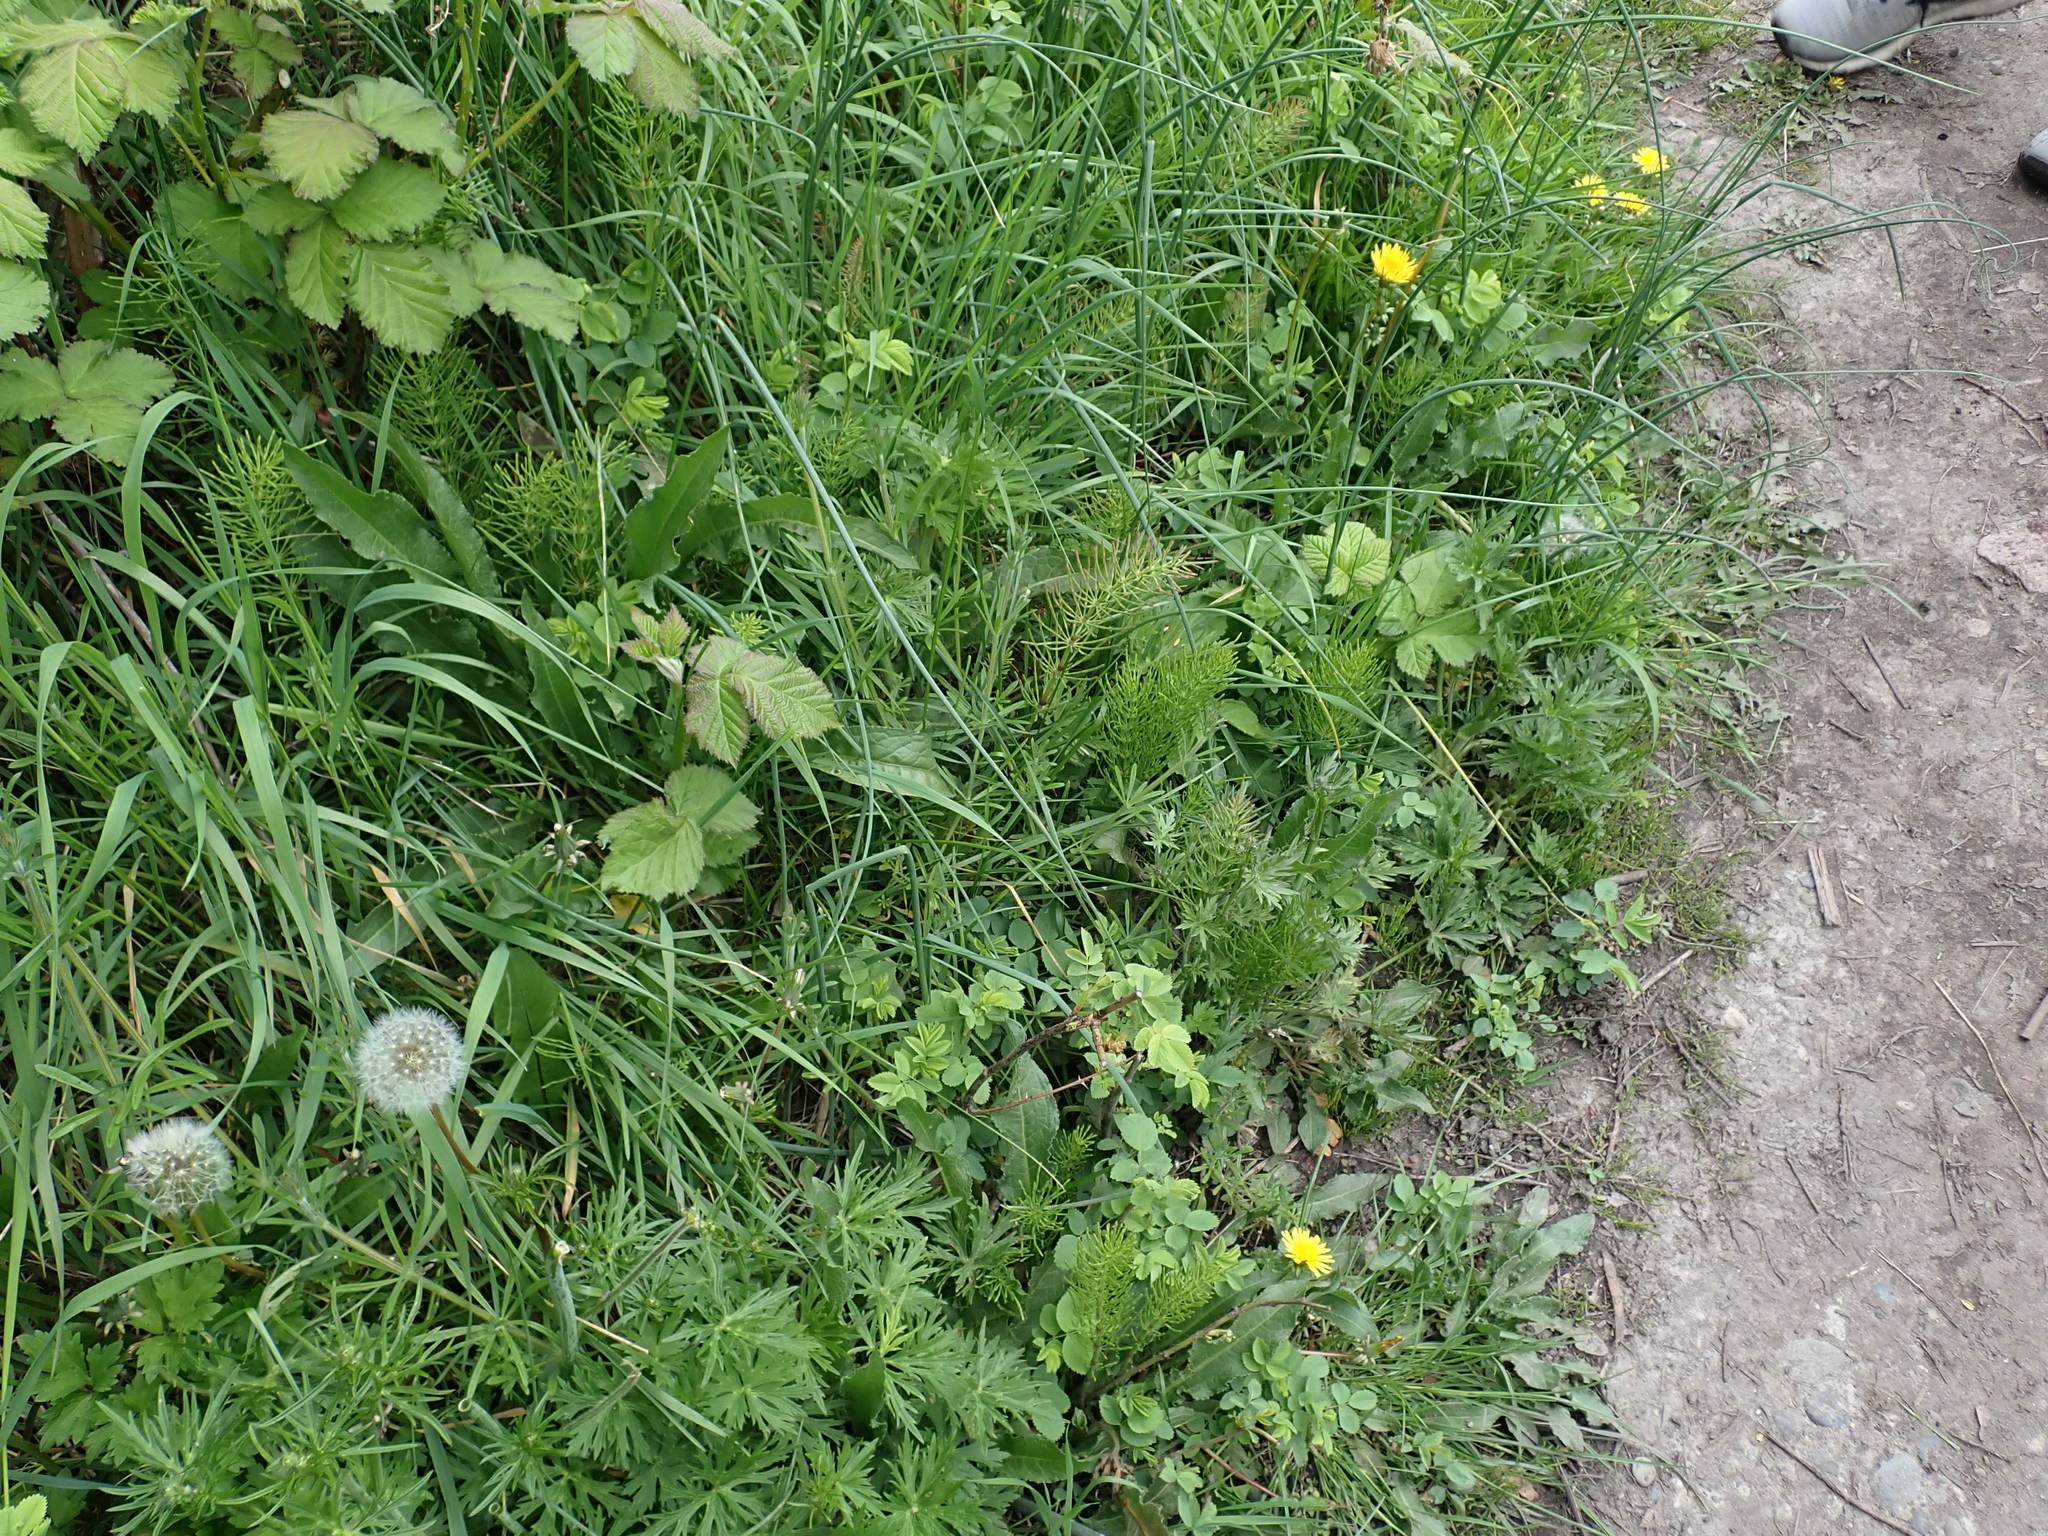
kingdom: Plantae
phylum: Tracheophyta
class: Polypodiopsida
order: Equisetales
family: Equisetaceae
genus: Equisetum
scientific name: Equisetum arvense
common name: Field horsetail
